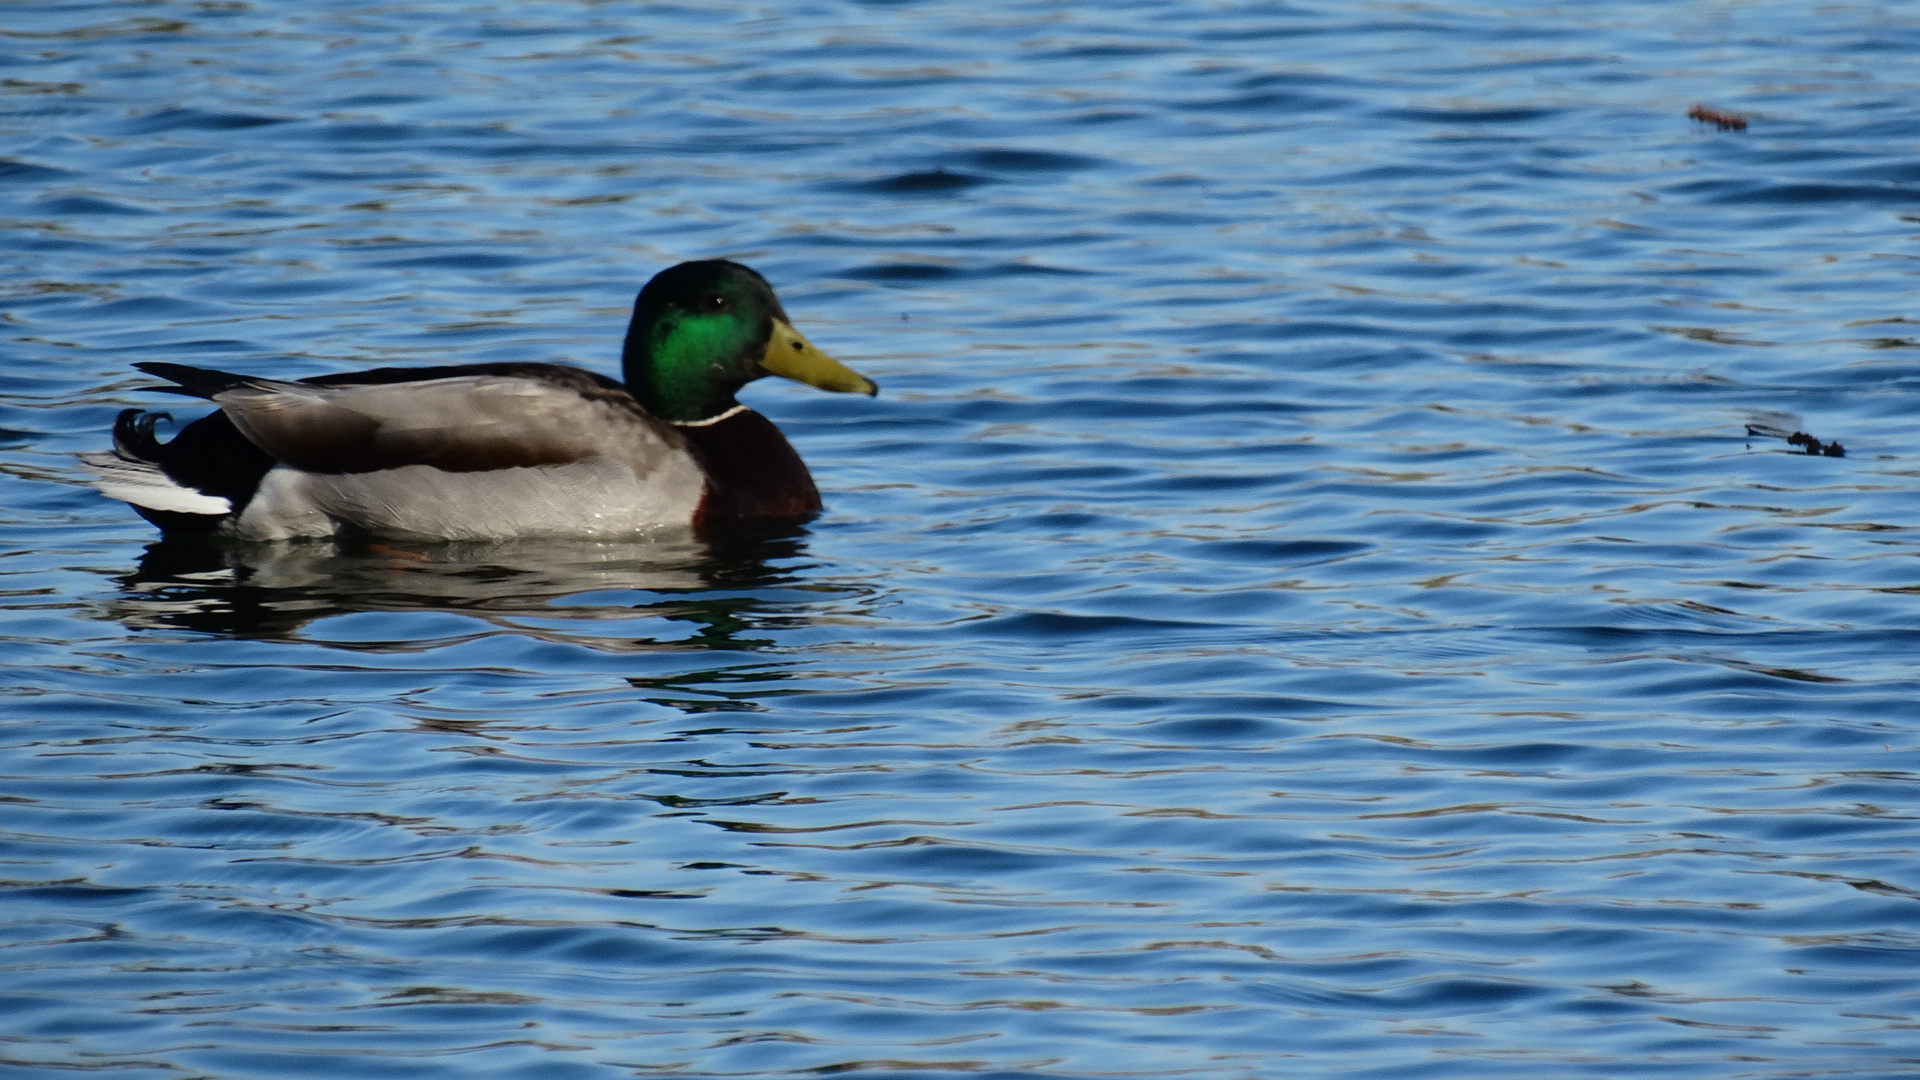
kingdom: Animalia
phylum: Chordata
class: Aves
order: Anseriformes
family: Anatidae
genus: Anas
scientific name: Anas platyrhynchos
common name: Mallard
